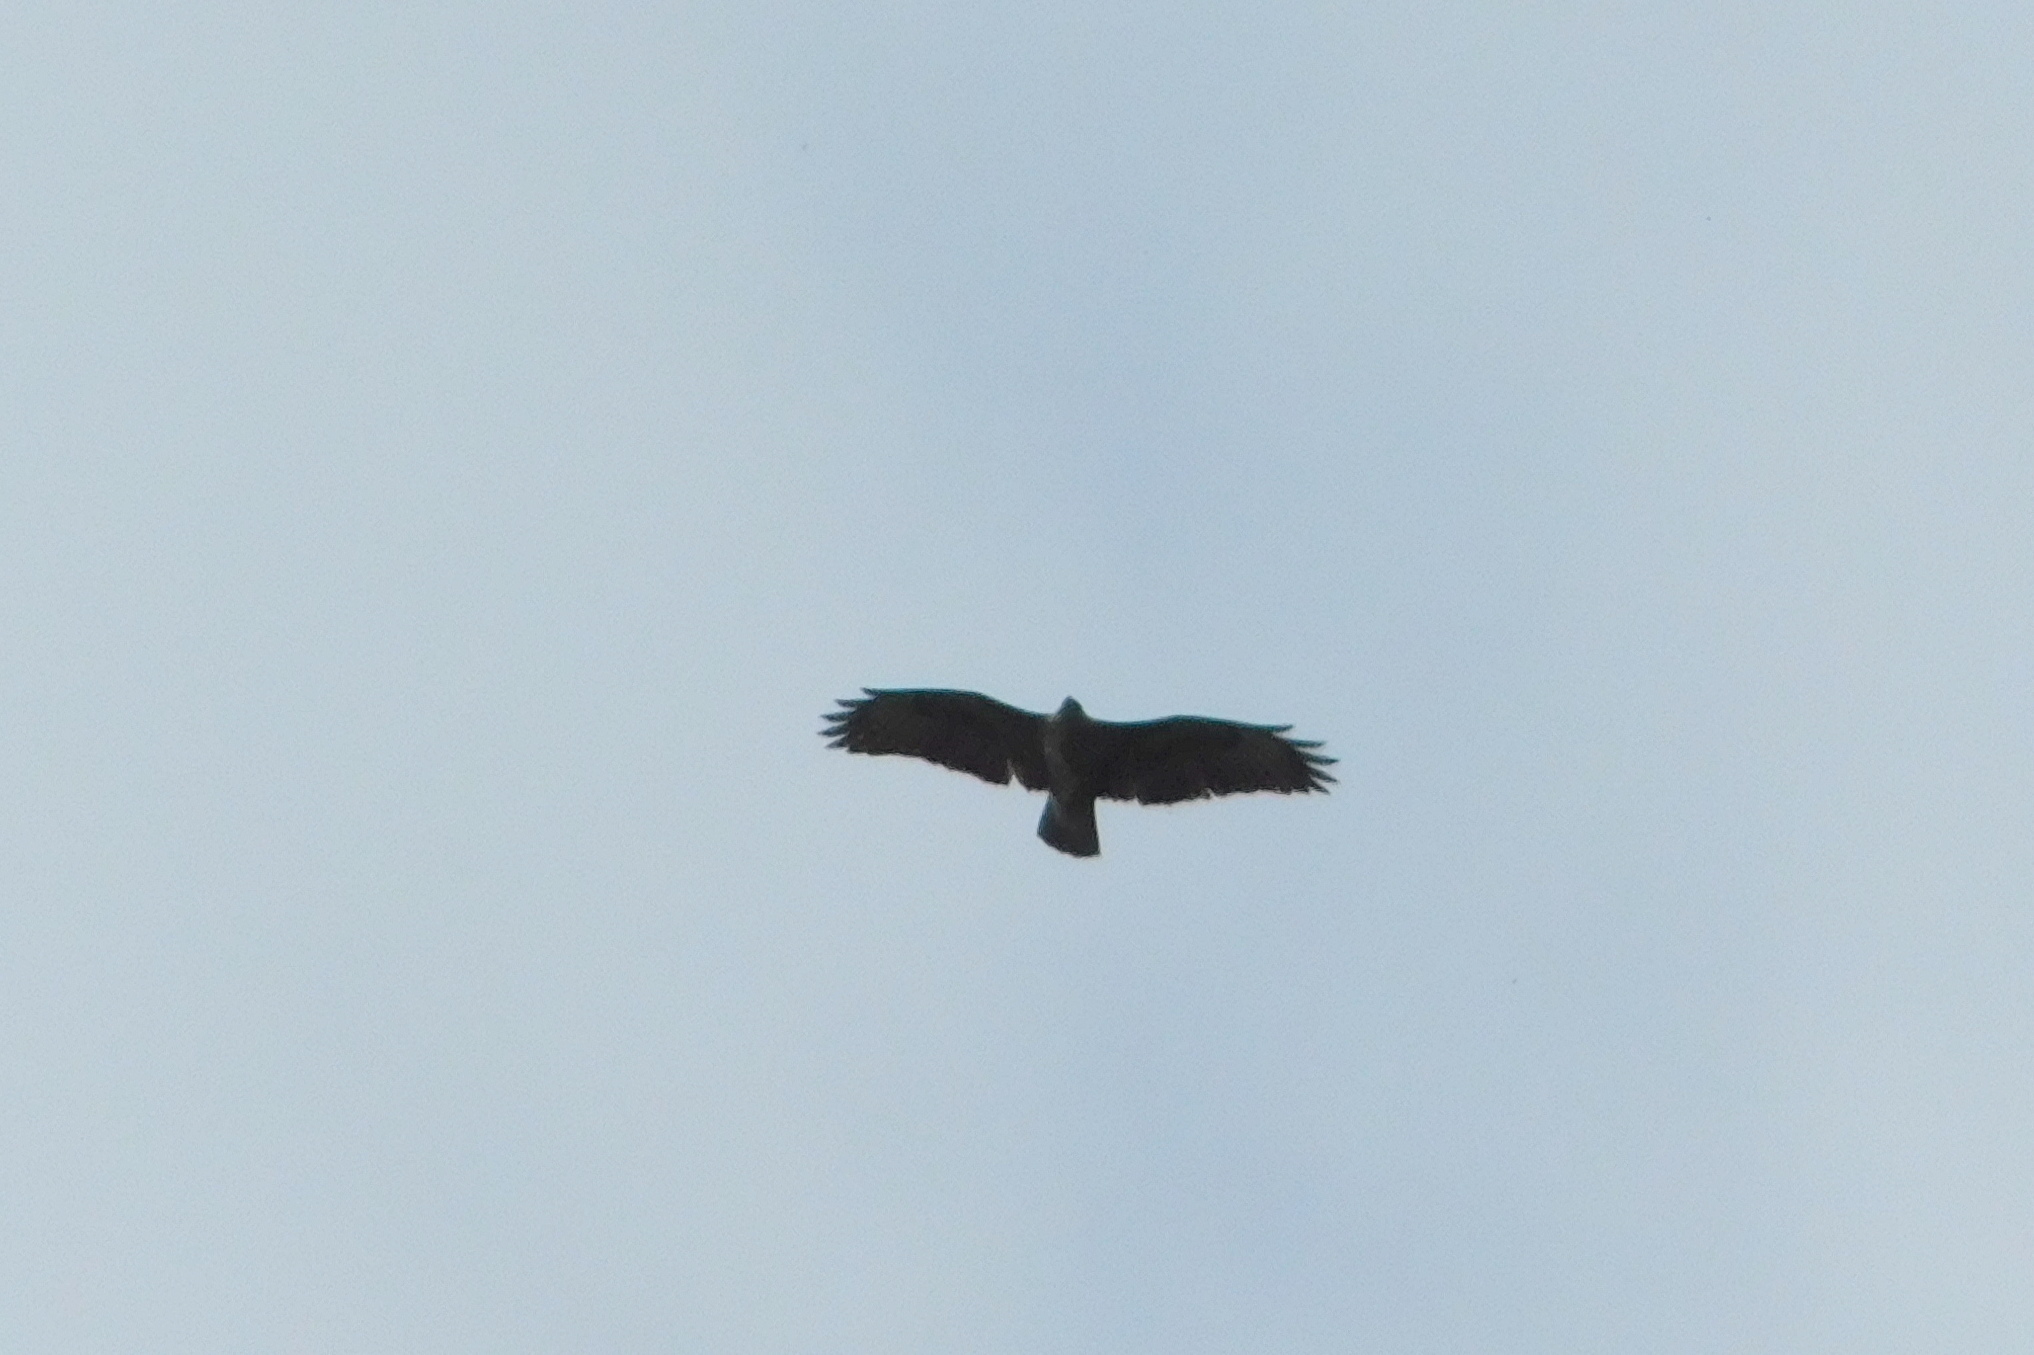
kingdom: Animalia
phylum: Chordata
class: Aves
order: Accipitriformes
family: Accipitridae
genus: Buteo
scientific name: Buteo buteo
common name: Common buzzard
